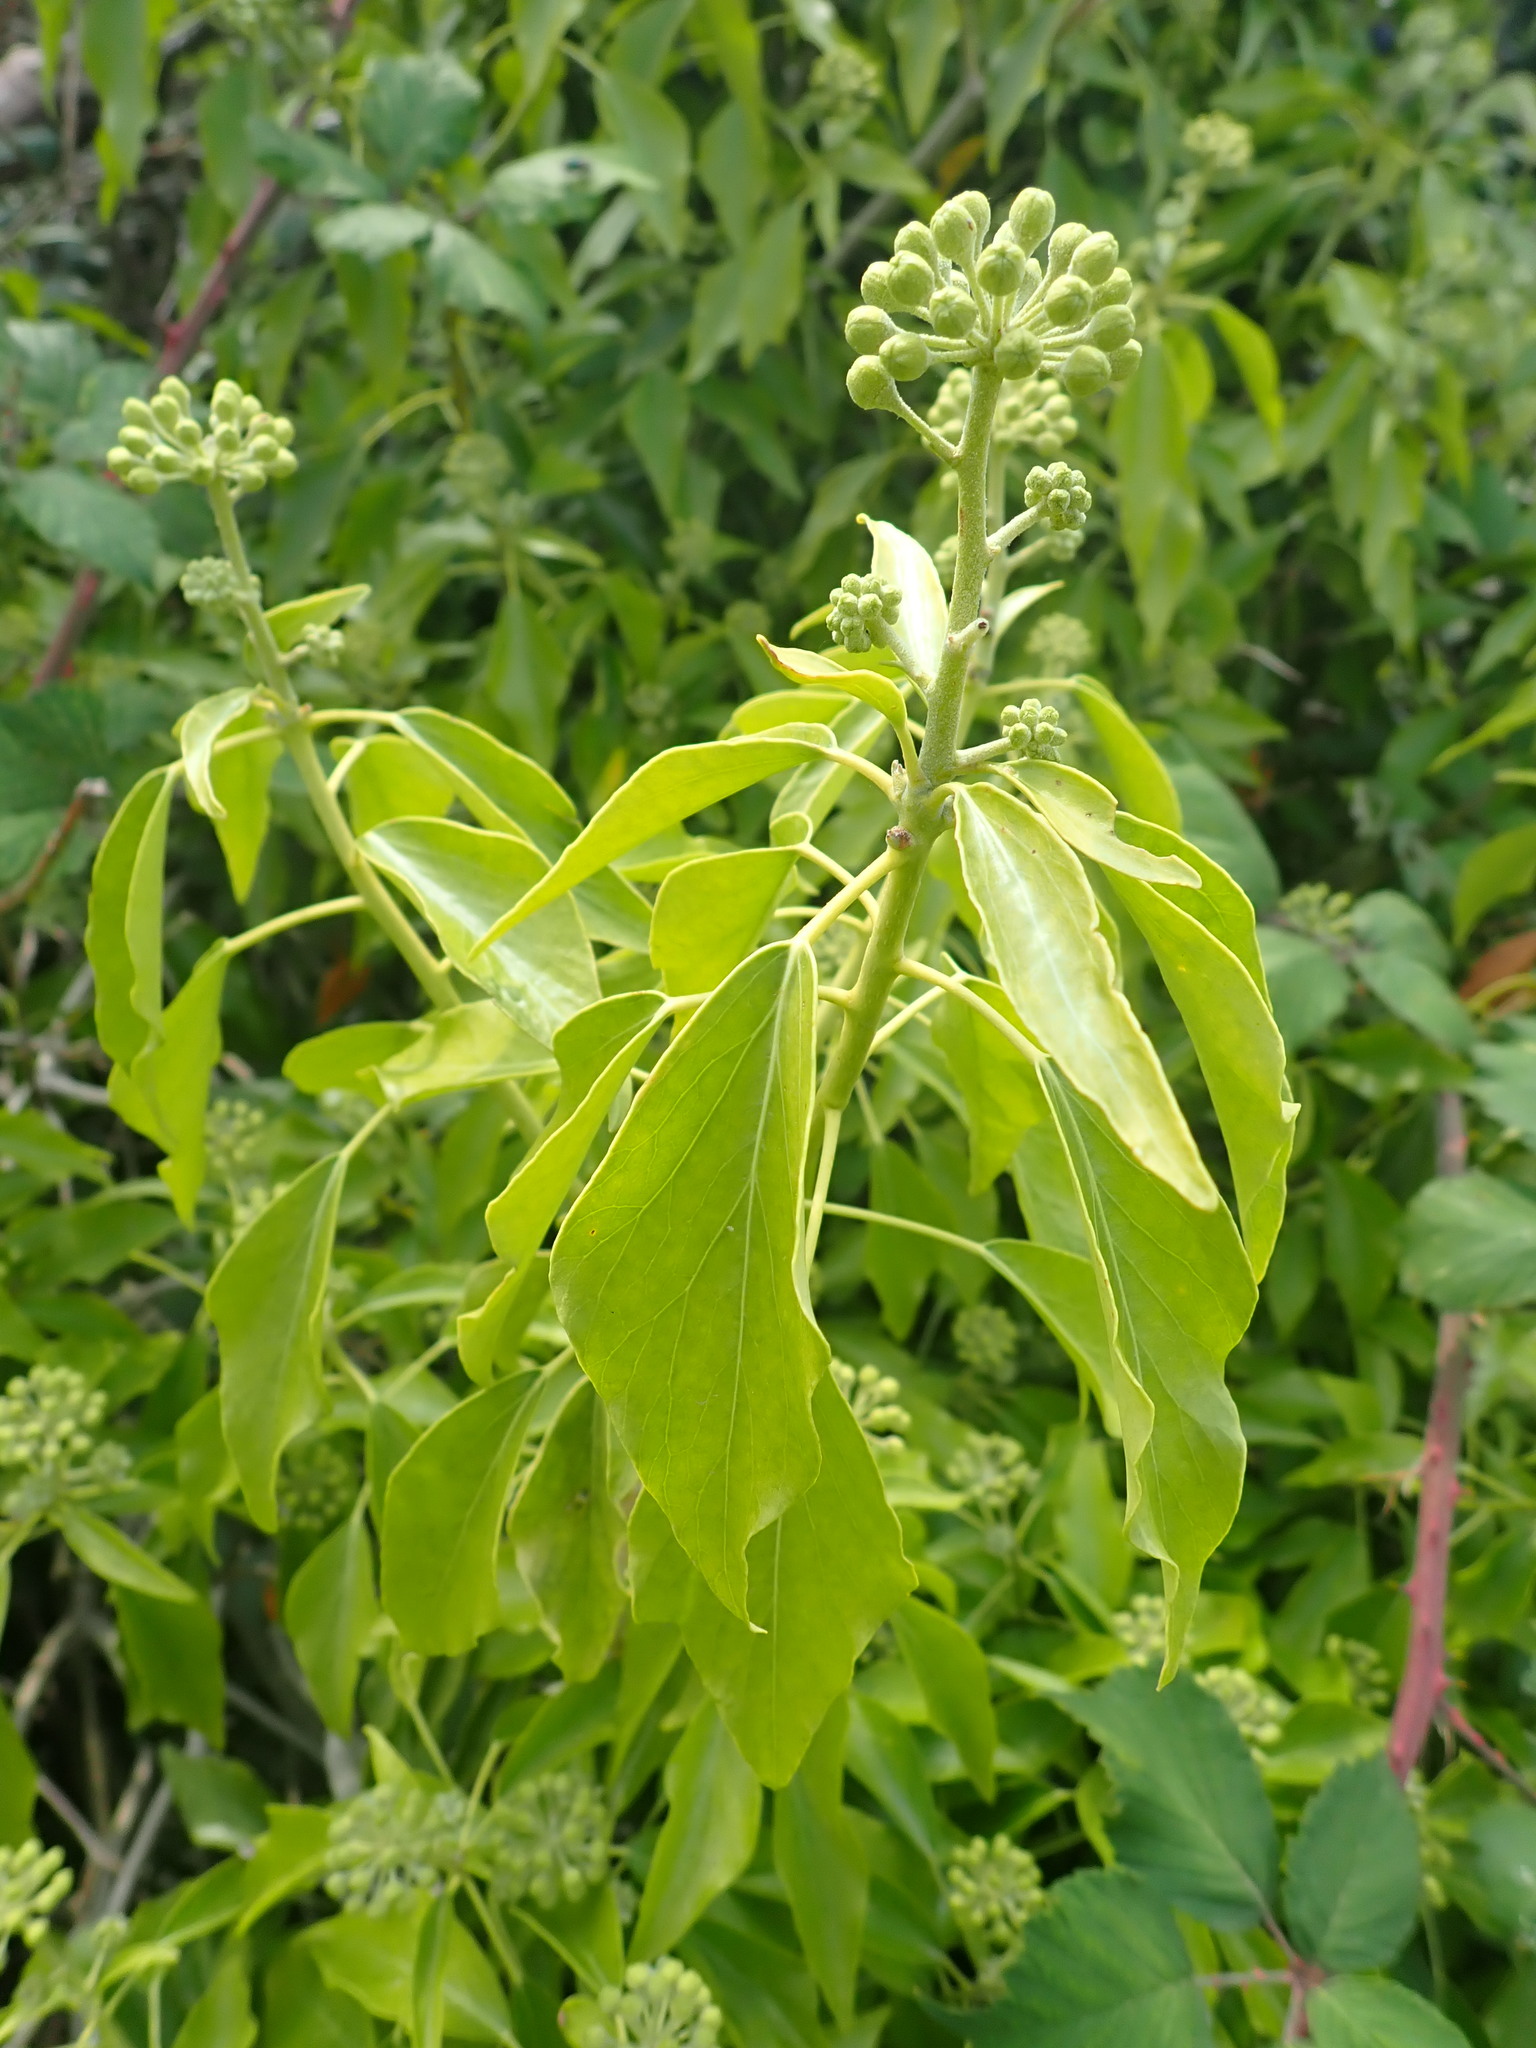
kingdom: Plantae
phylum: Tracheophyta
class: Magnoliopsida
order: Apiales
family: Araliaceae
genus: Hedera
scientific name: Hedera helix
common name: Ivy
